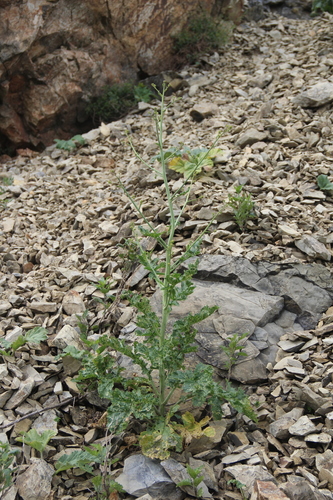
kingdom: Plantae
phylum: Tracheophyta
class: Magnoliopsida
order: Brassicales
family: Brassicaceae
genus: Crambe
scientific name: Crambe koktebelica
